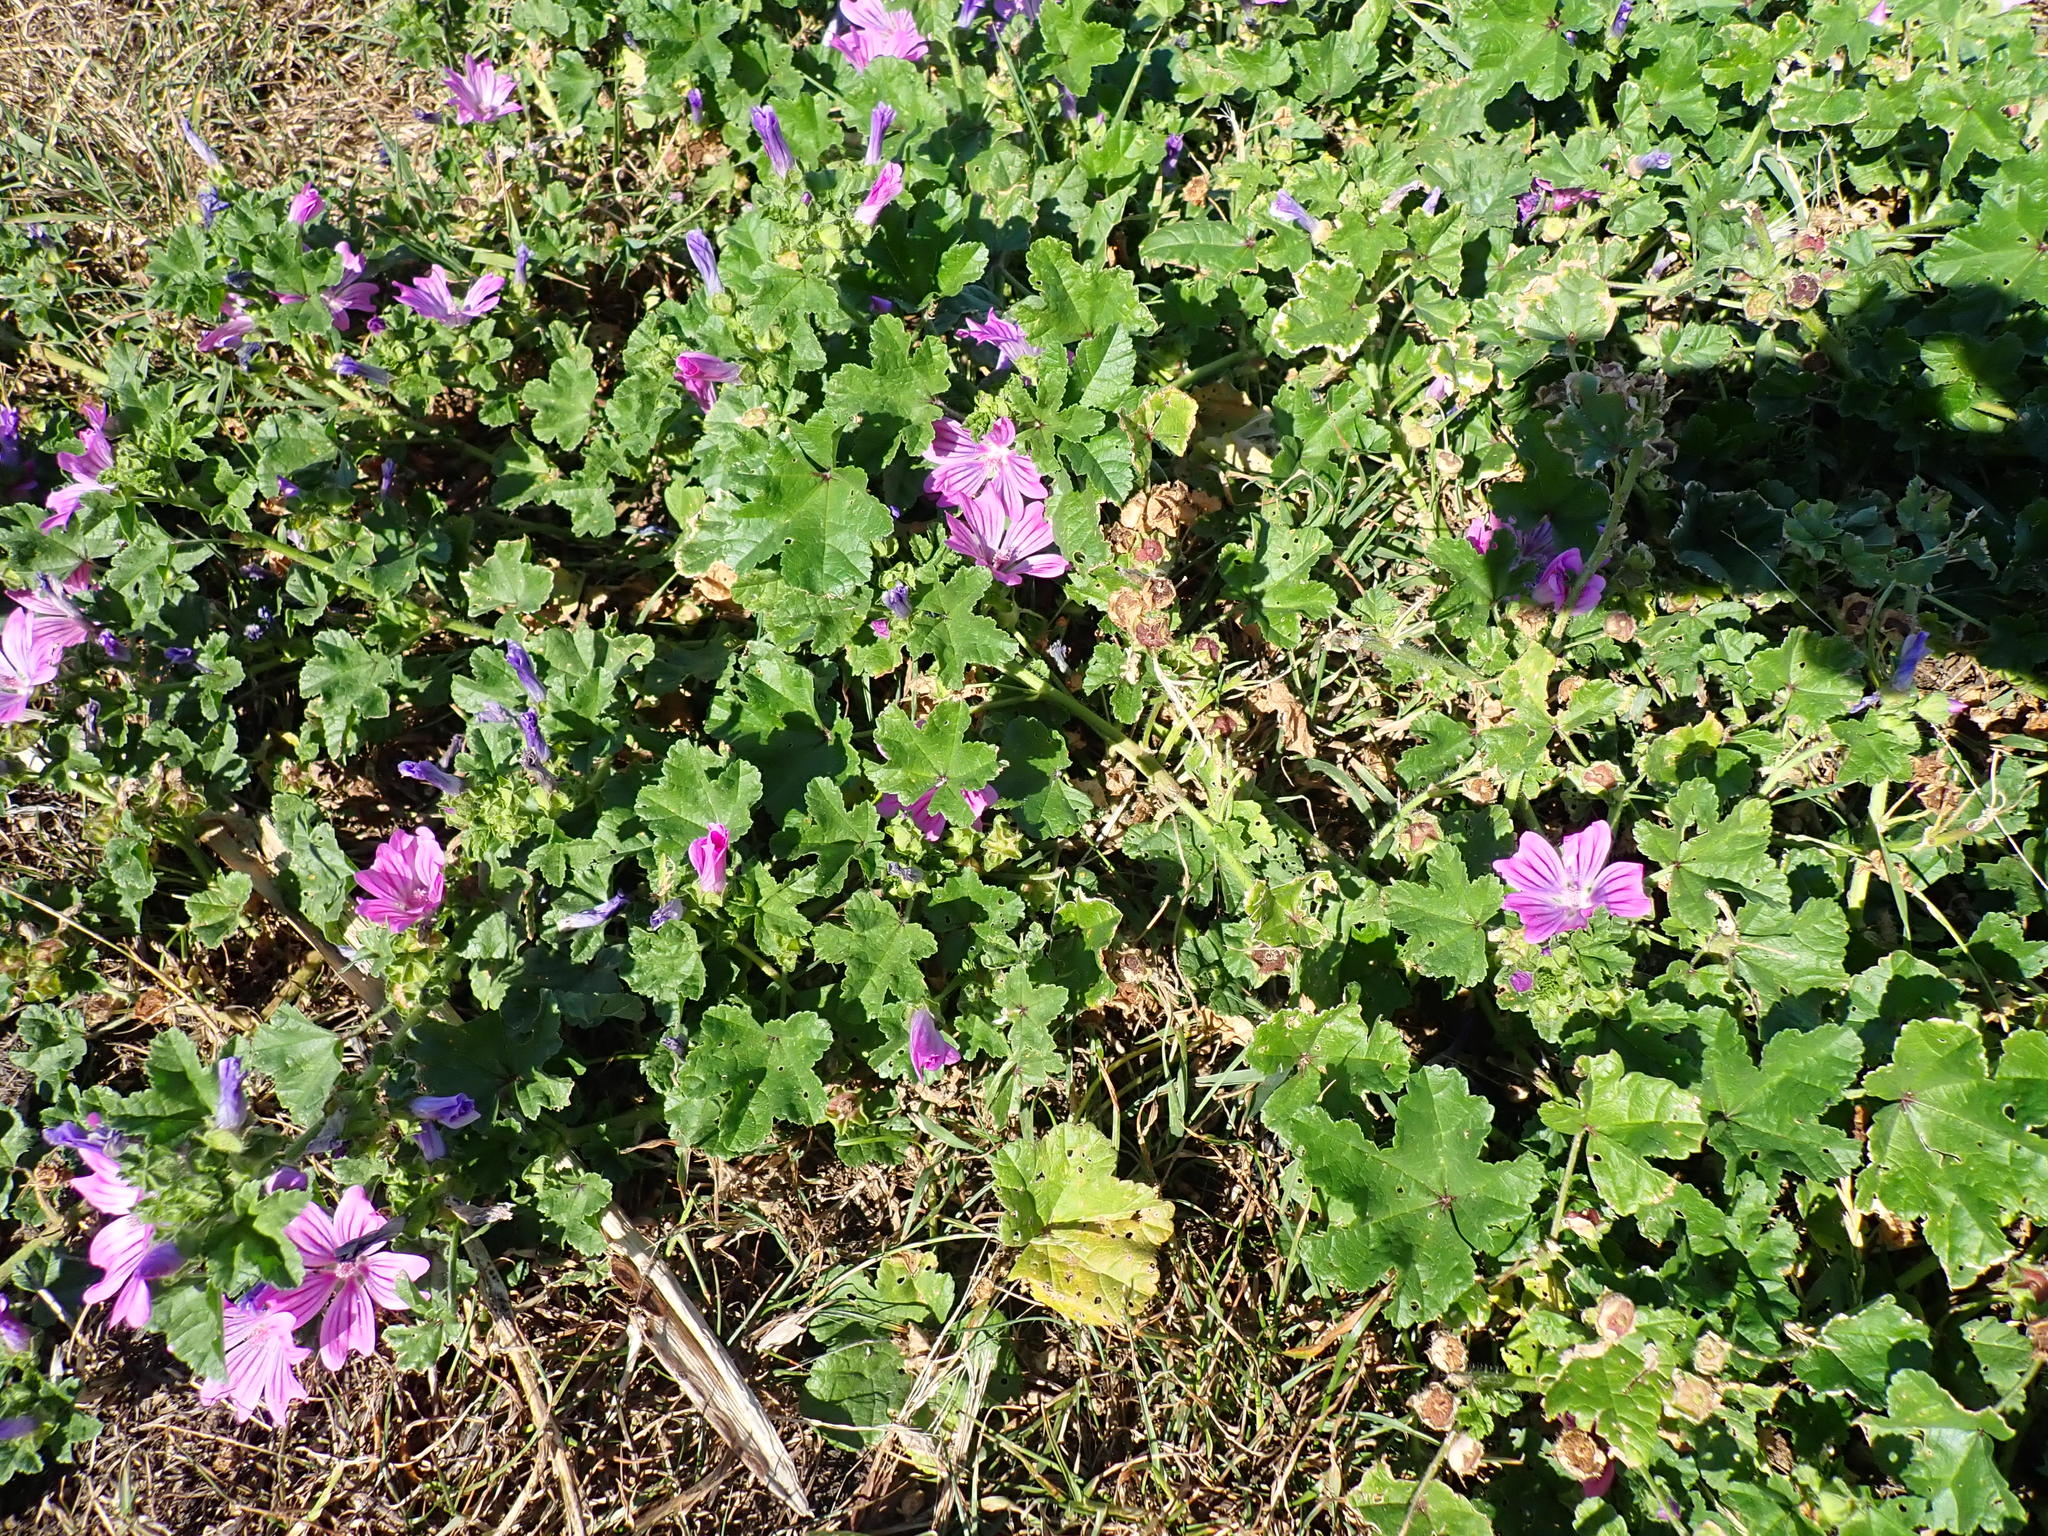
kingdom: Plantae
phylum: Tracheophyta
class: Magnoliopsida
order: Malvales
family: Malvaceae
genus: Malva
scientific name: Malva sylvestris
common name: Common mallow
